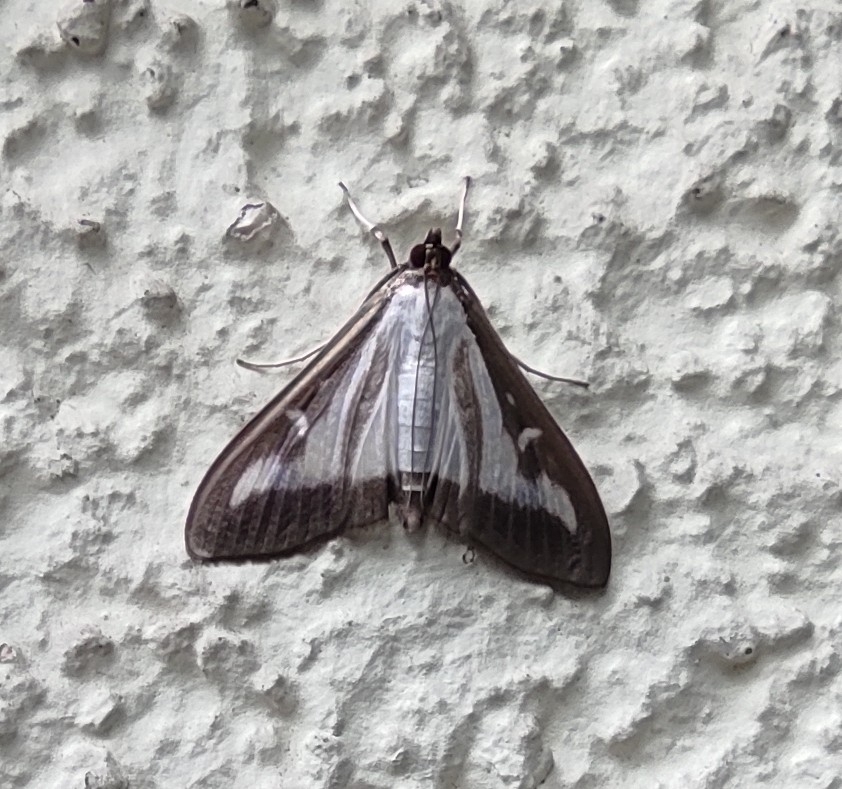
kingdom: Animalia
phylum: Arthropoda
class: Insecta
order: Lepidoptera
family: Crambidae
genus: Cydalima
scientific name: Cydalima perspectalis
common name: Box tree moth
